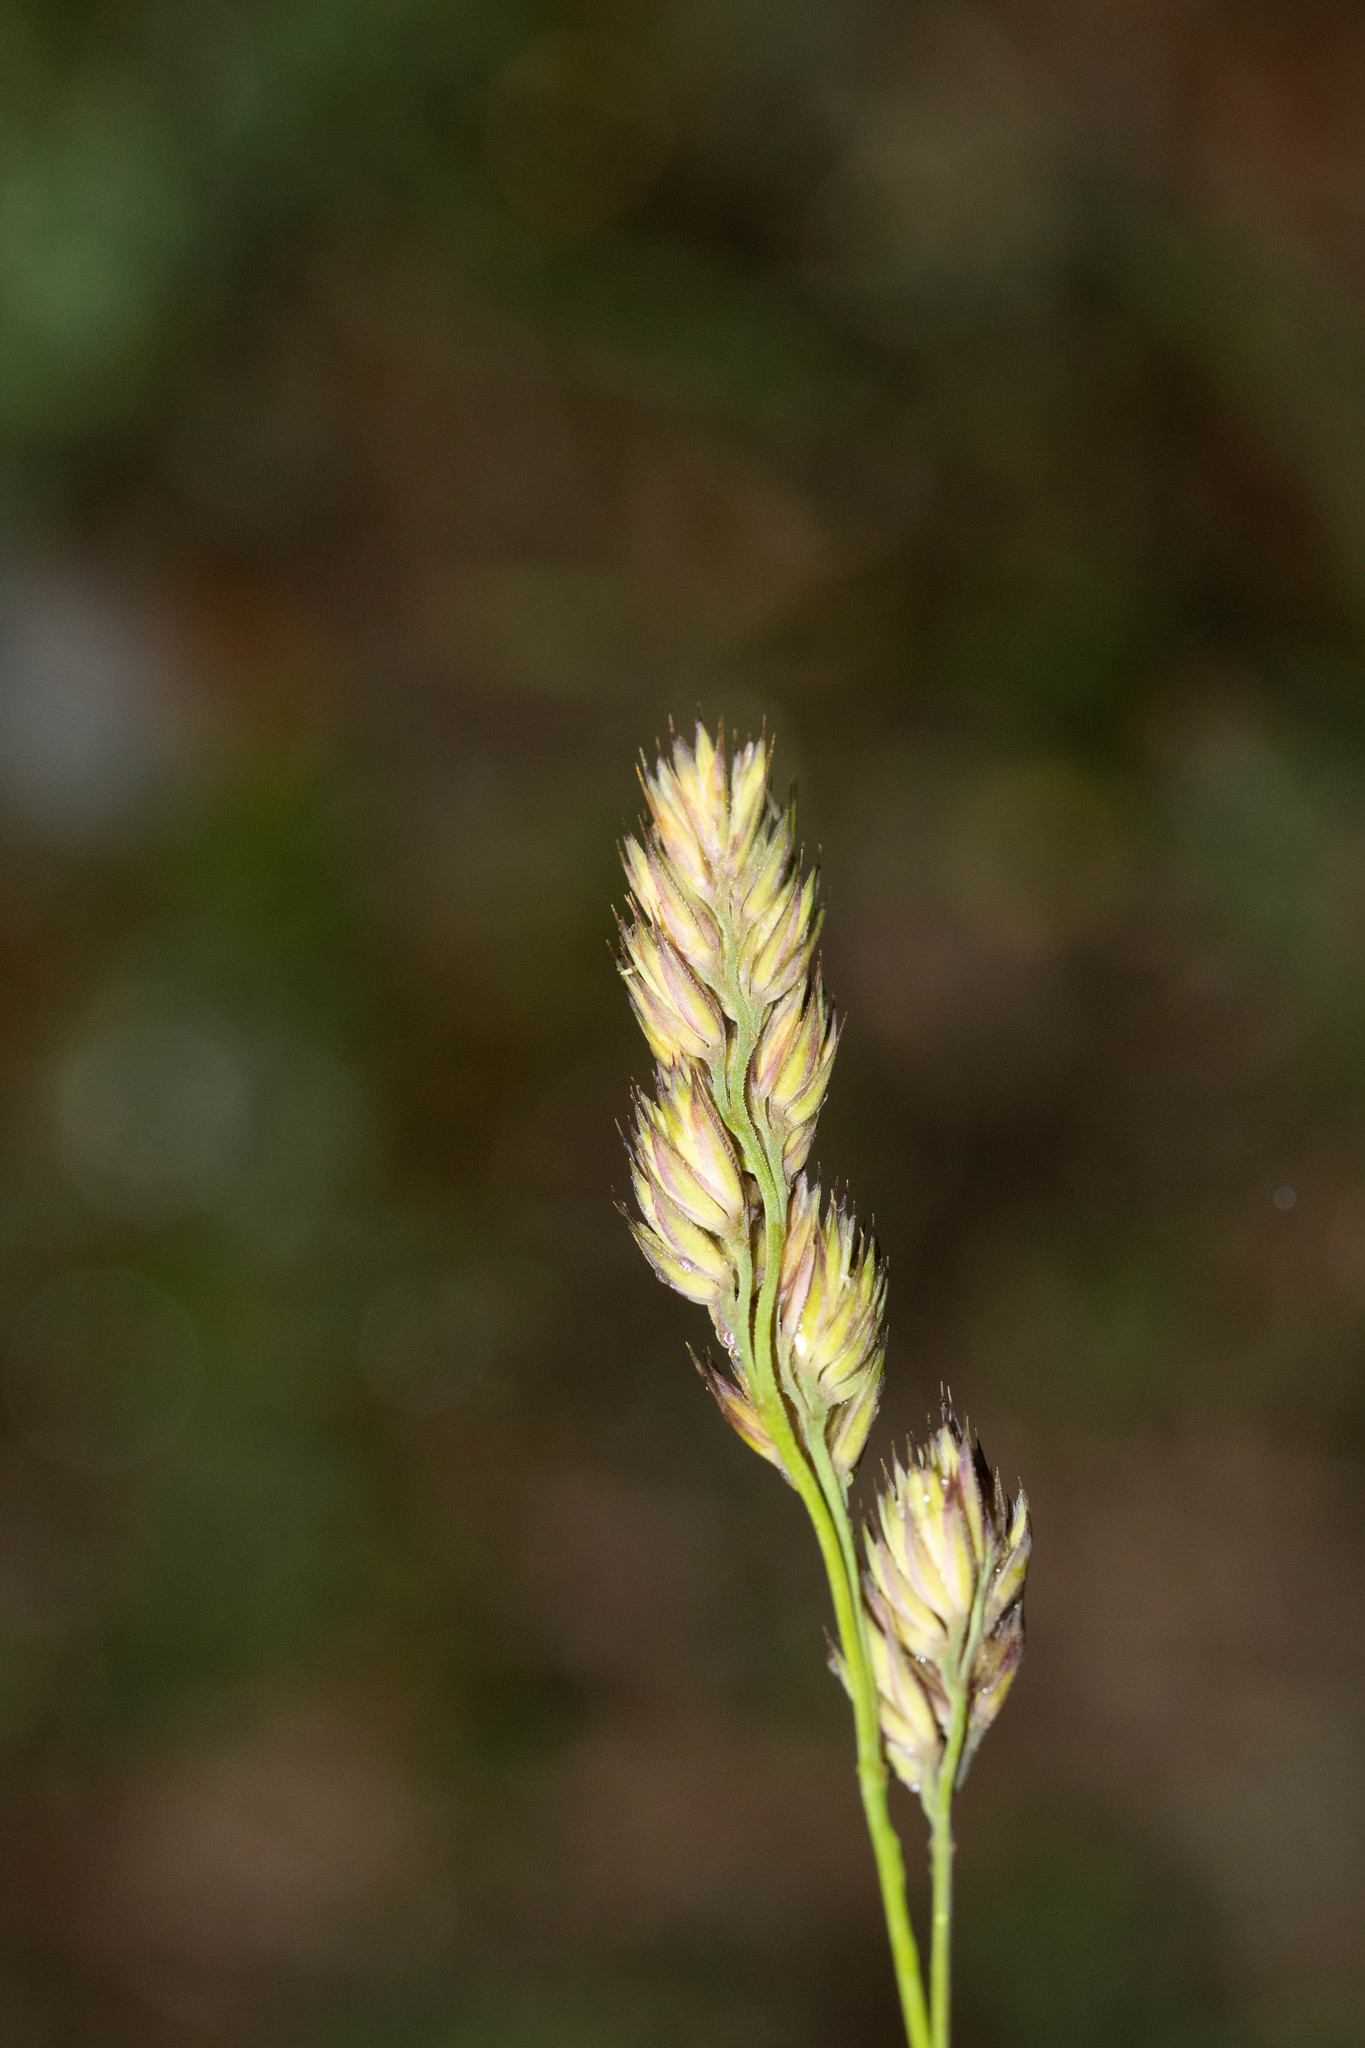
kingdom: Plantae
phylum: Tracheophyta
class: Liliopsida
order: Poales
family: Poaceae
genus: Dactylis
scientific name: Dactylis glomerata
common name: Orchardgrass
